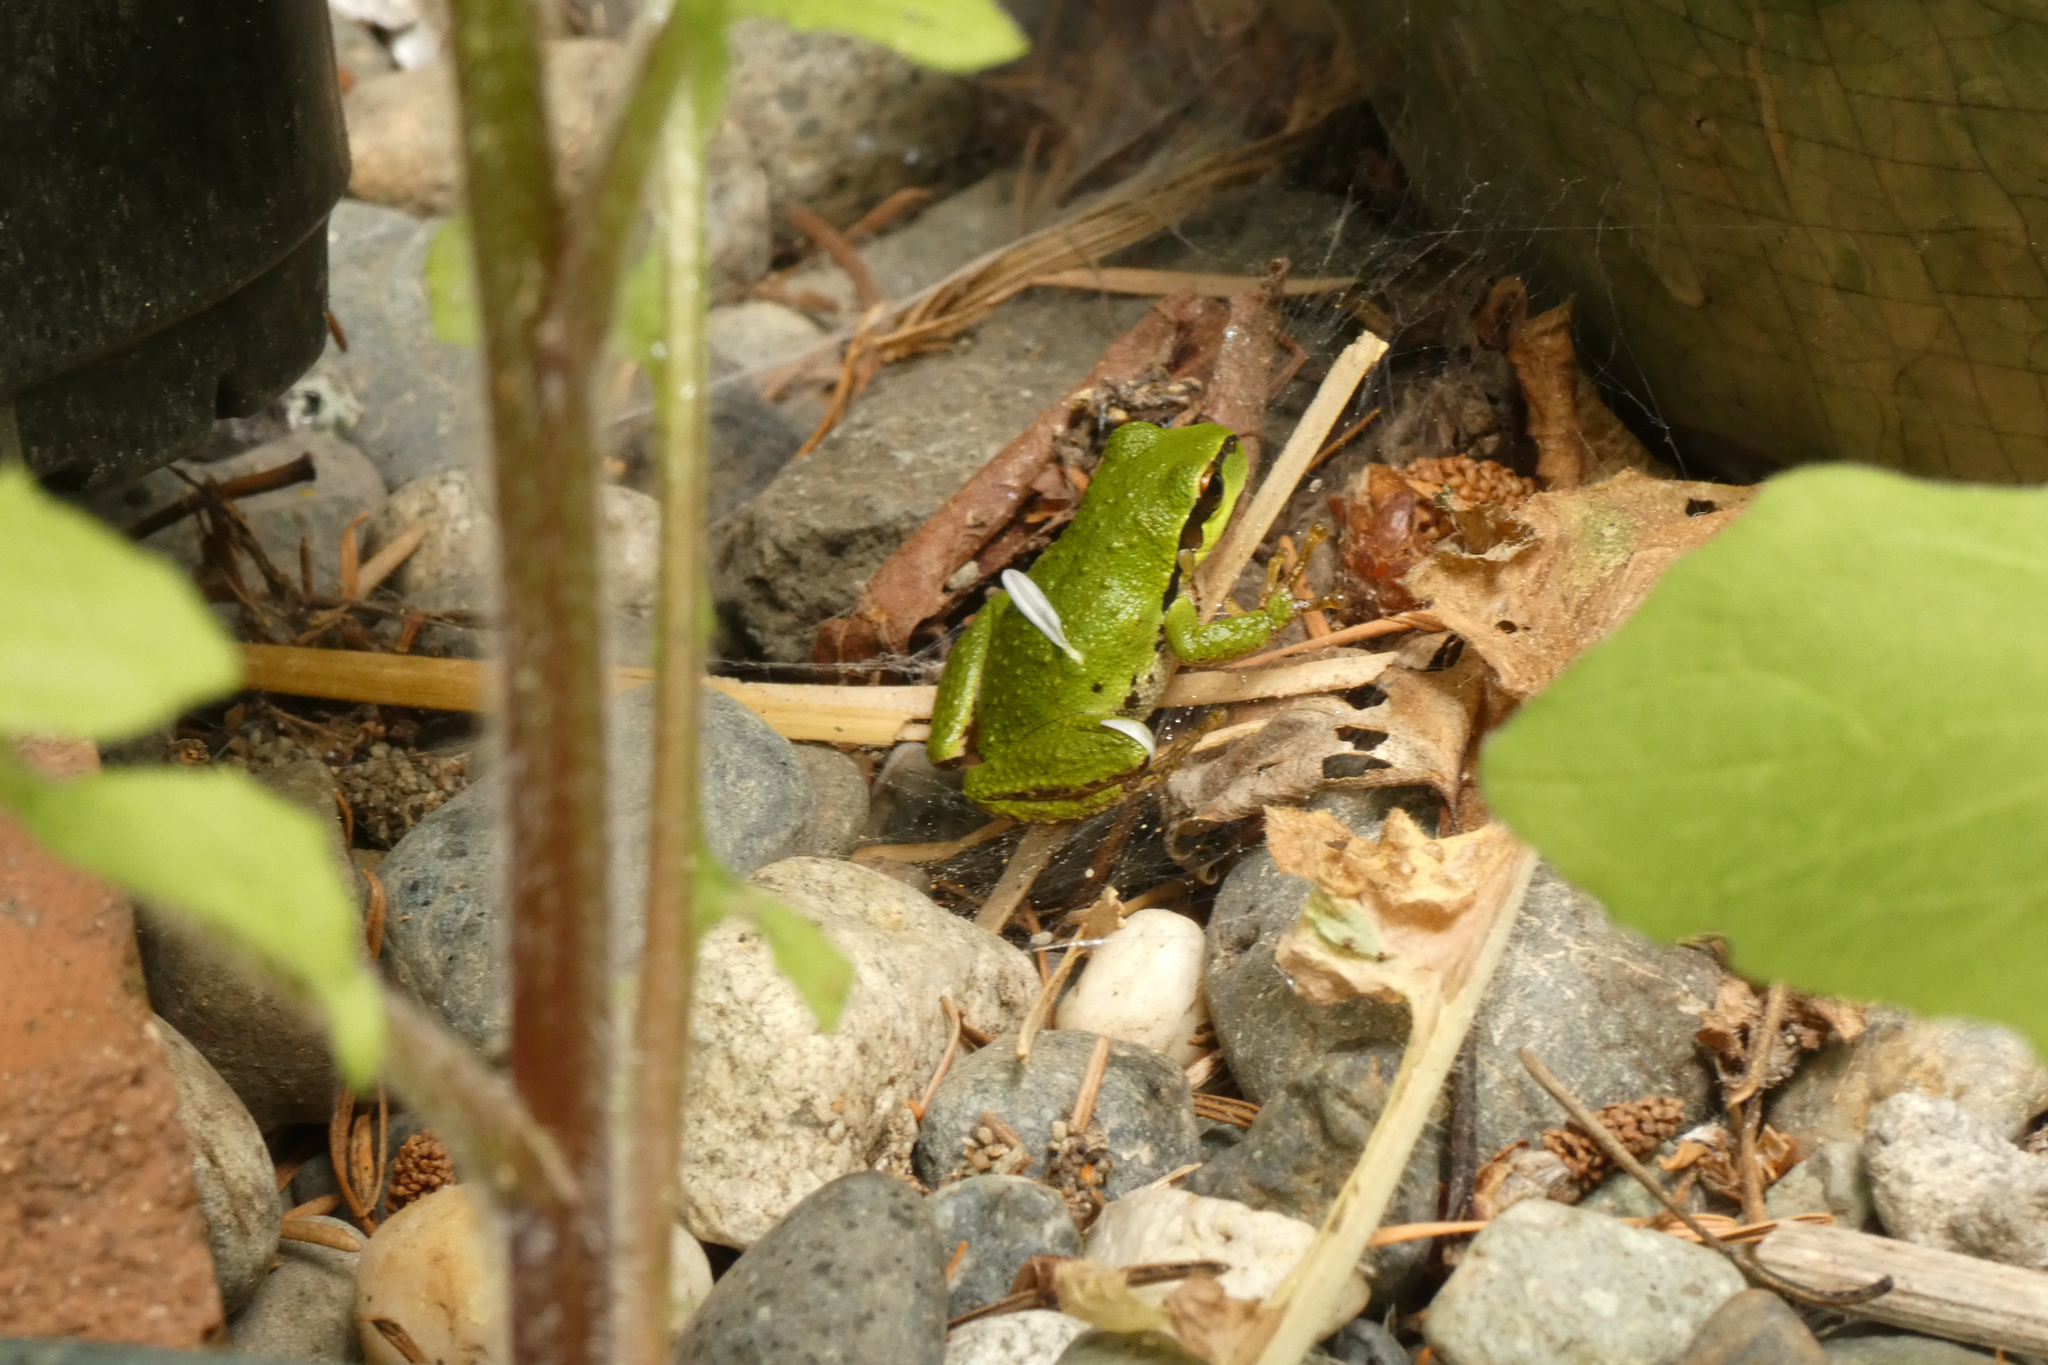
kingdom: Animalia
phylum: Chordata
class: Amphibia
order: Anura
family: Hylidae
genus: Pseudacris
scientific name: Pseudacris regilla
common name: Pacific chorus frog
